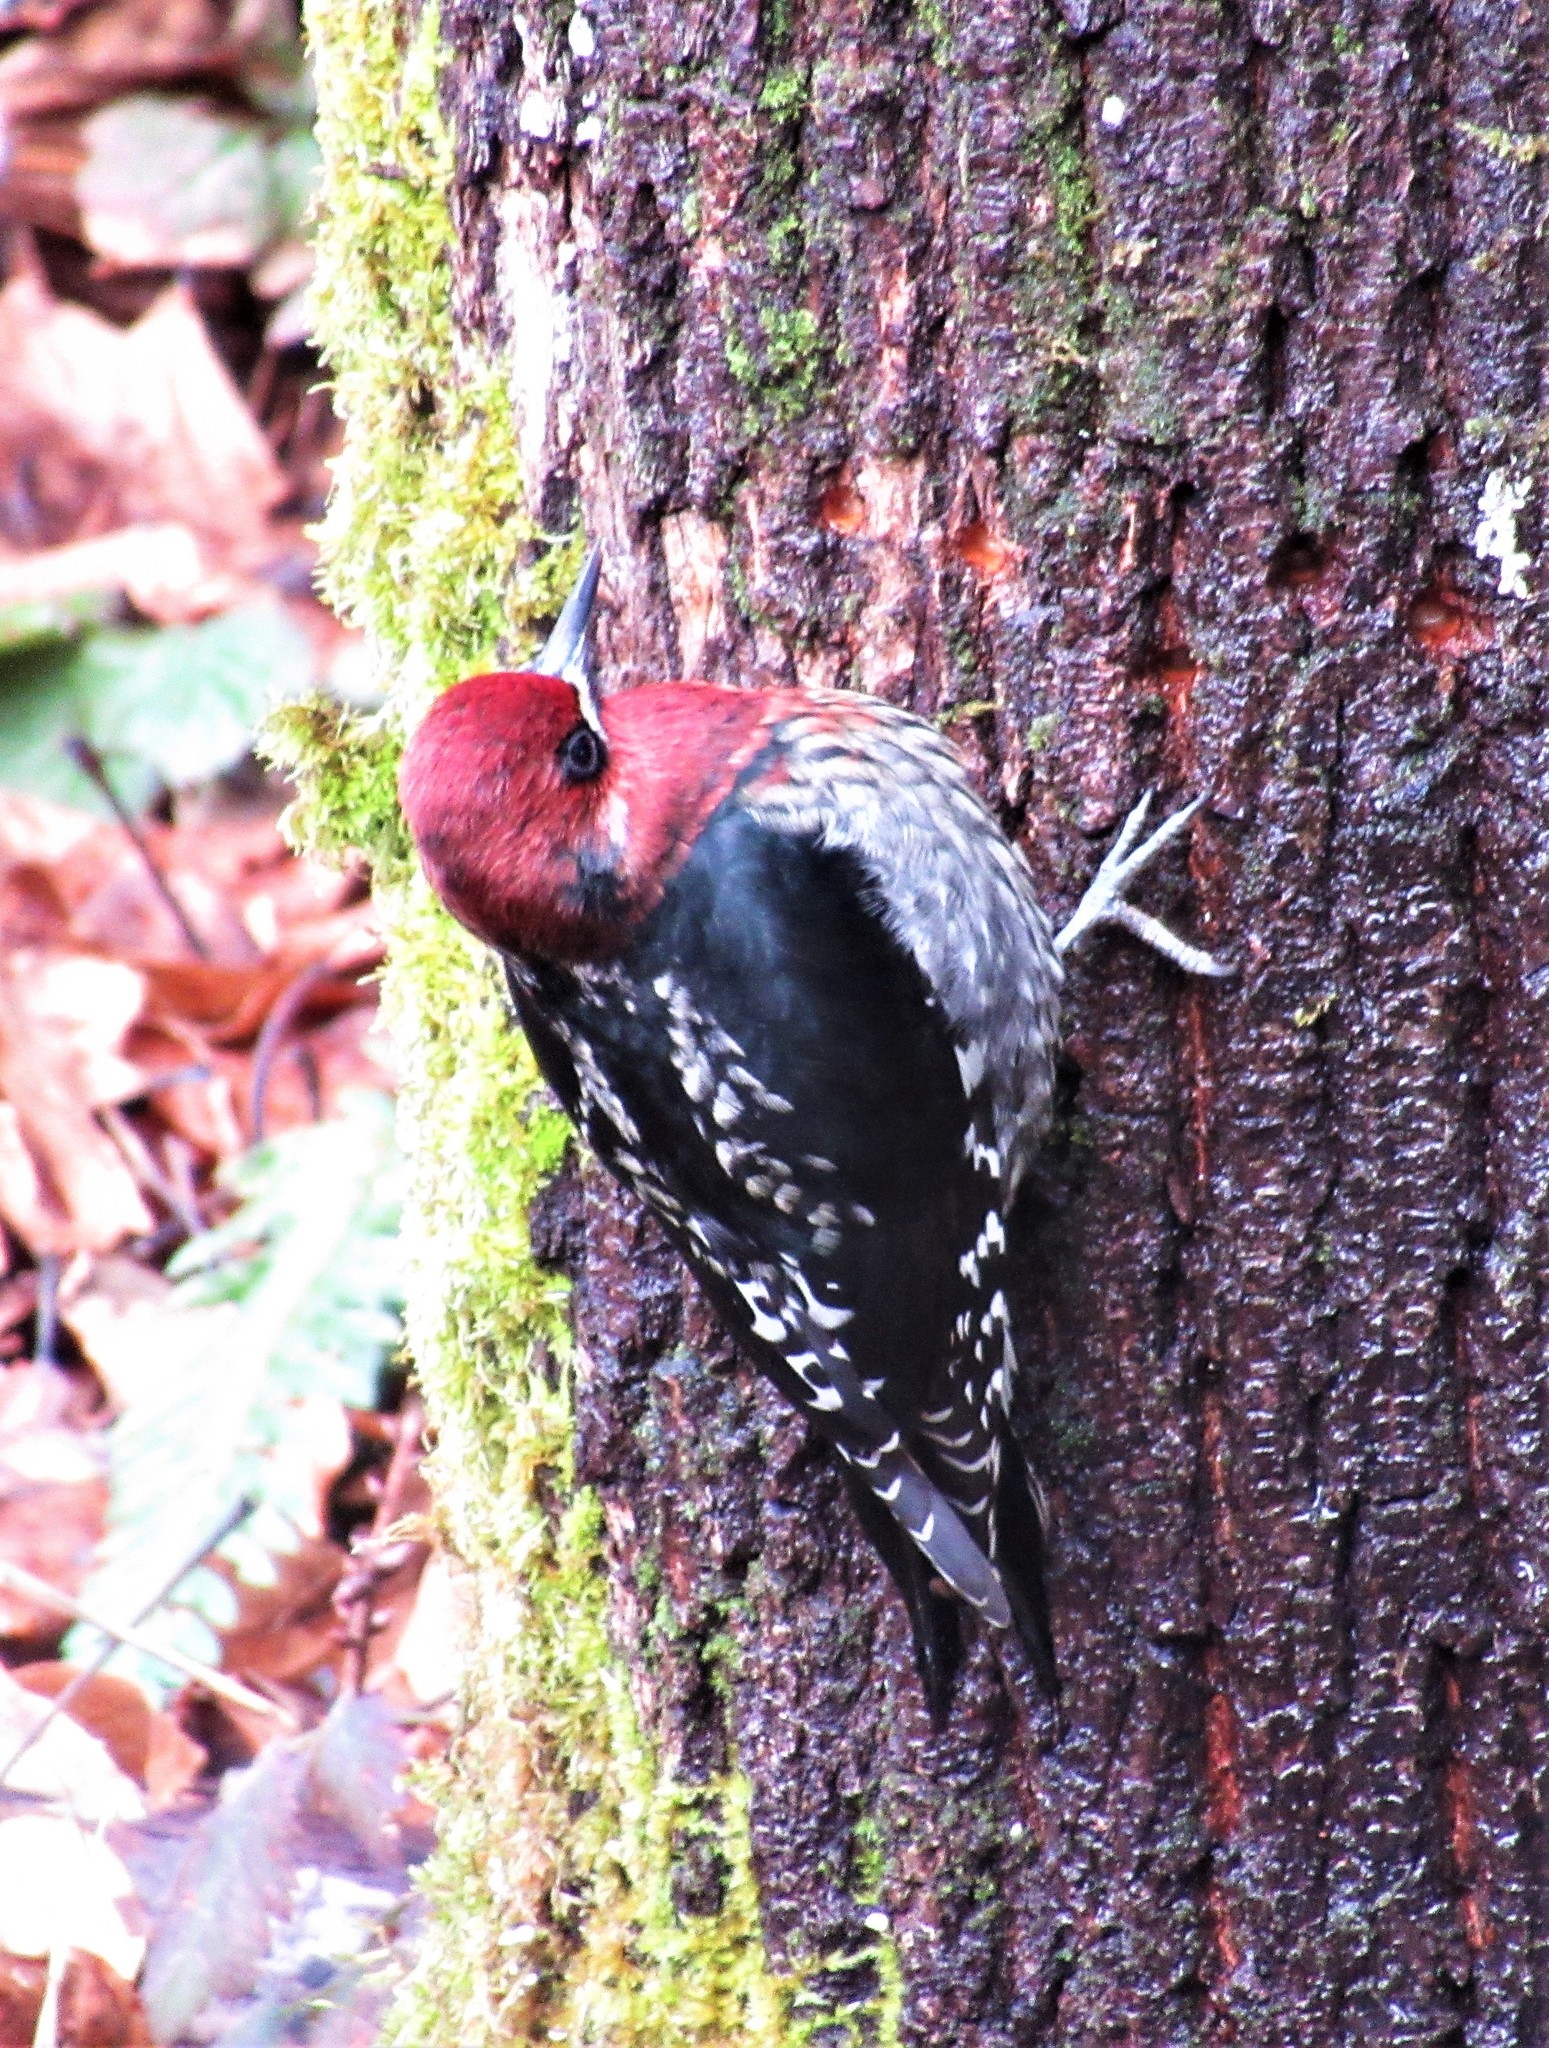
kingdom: Animalia
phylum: Chordata
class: Aves
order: Piciformes
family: Picidae
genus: Sphyrapicus
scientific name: Sphyrapicus ruber
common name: Red-breasted sapsucker
